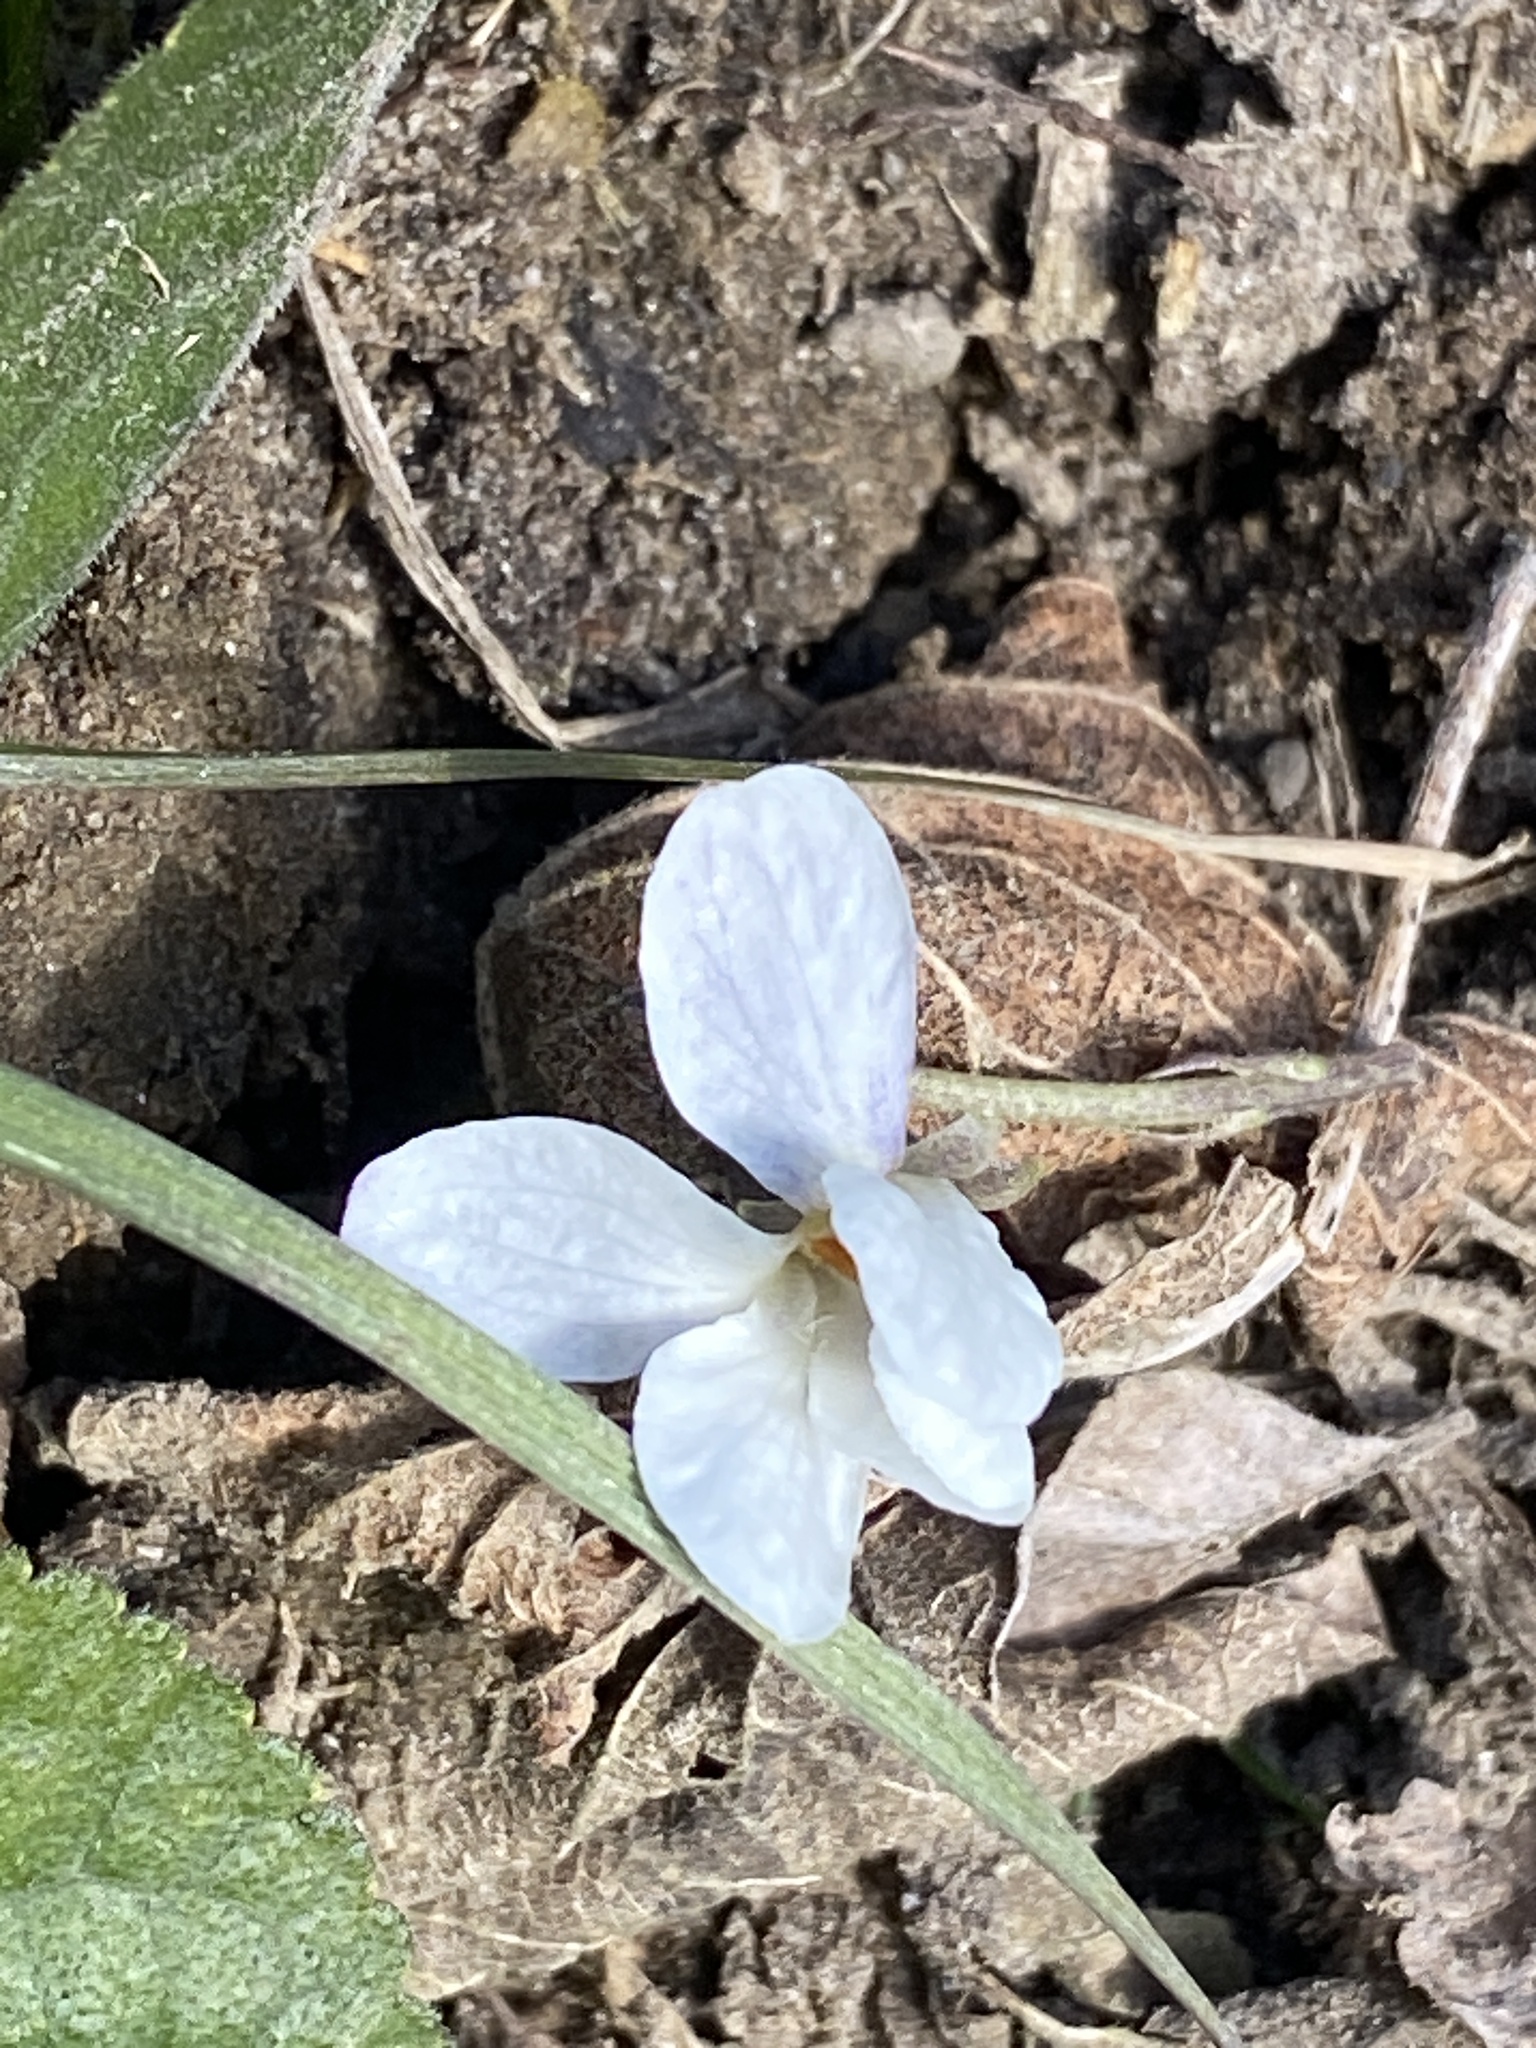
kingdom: Plantae
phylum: Tracheophyta
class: Magnoliopsida
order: Malpighiales
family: Violaceae
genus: Viola
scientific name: Viola odorata
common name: Sweet violet
